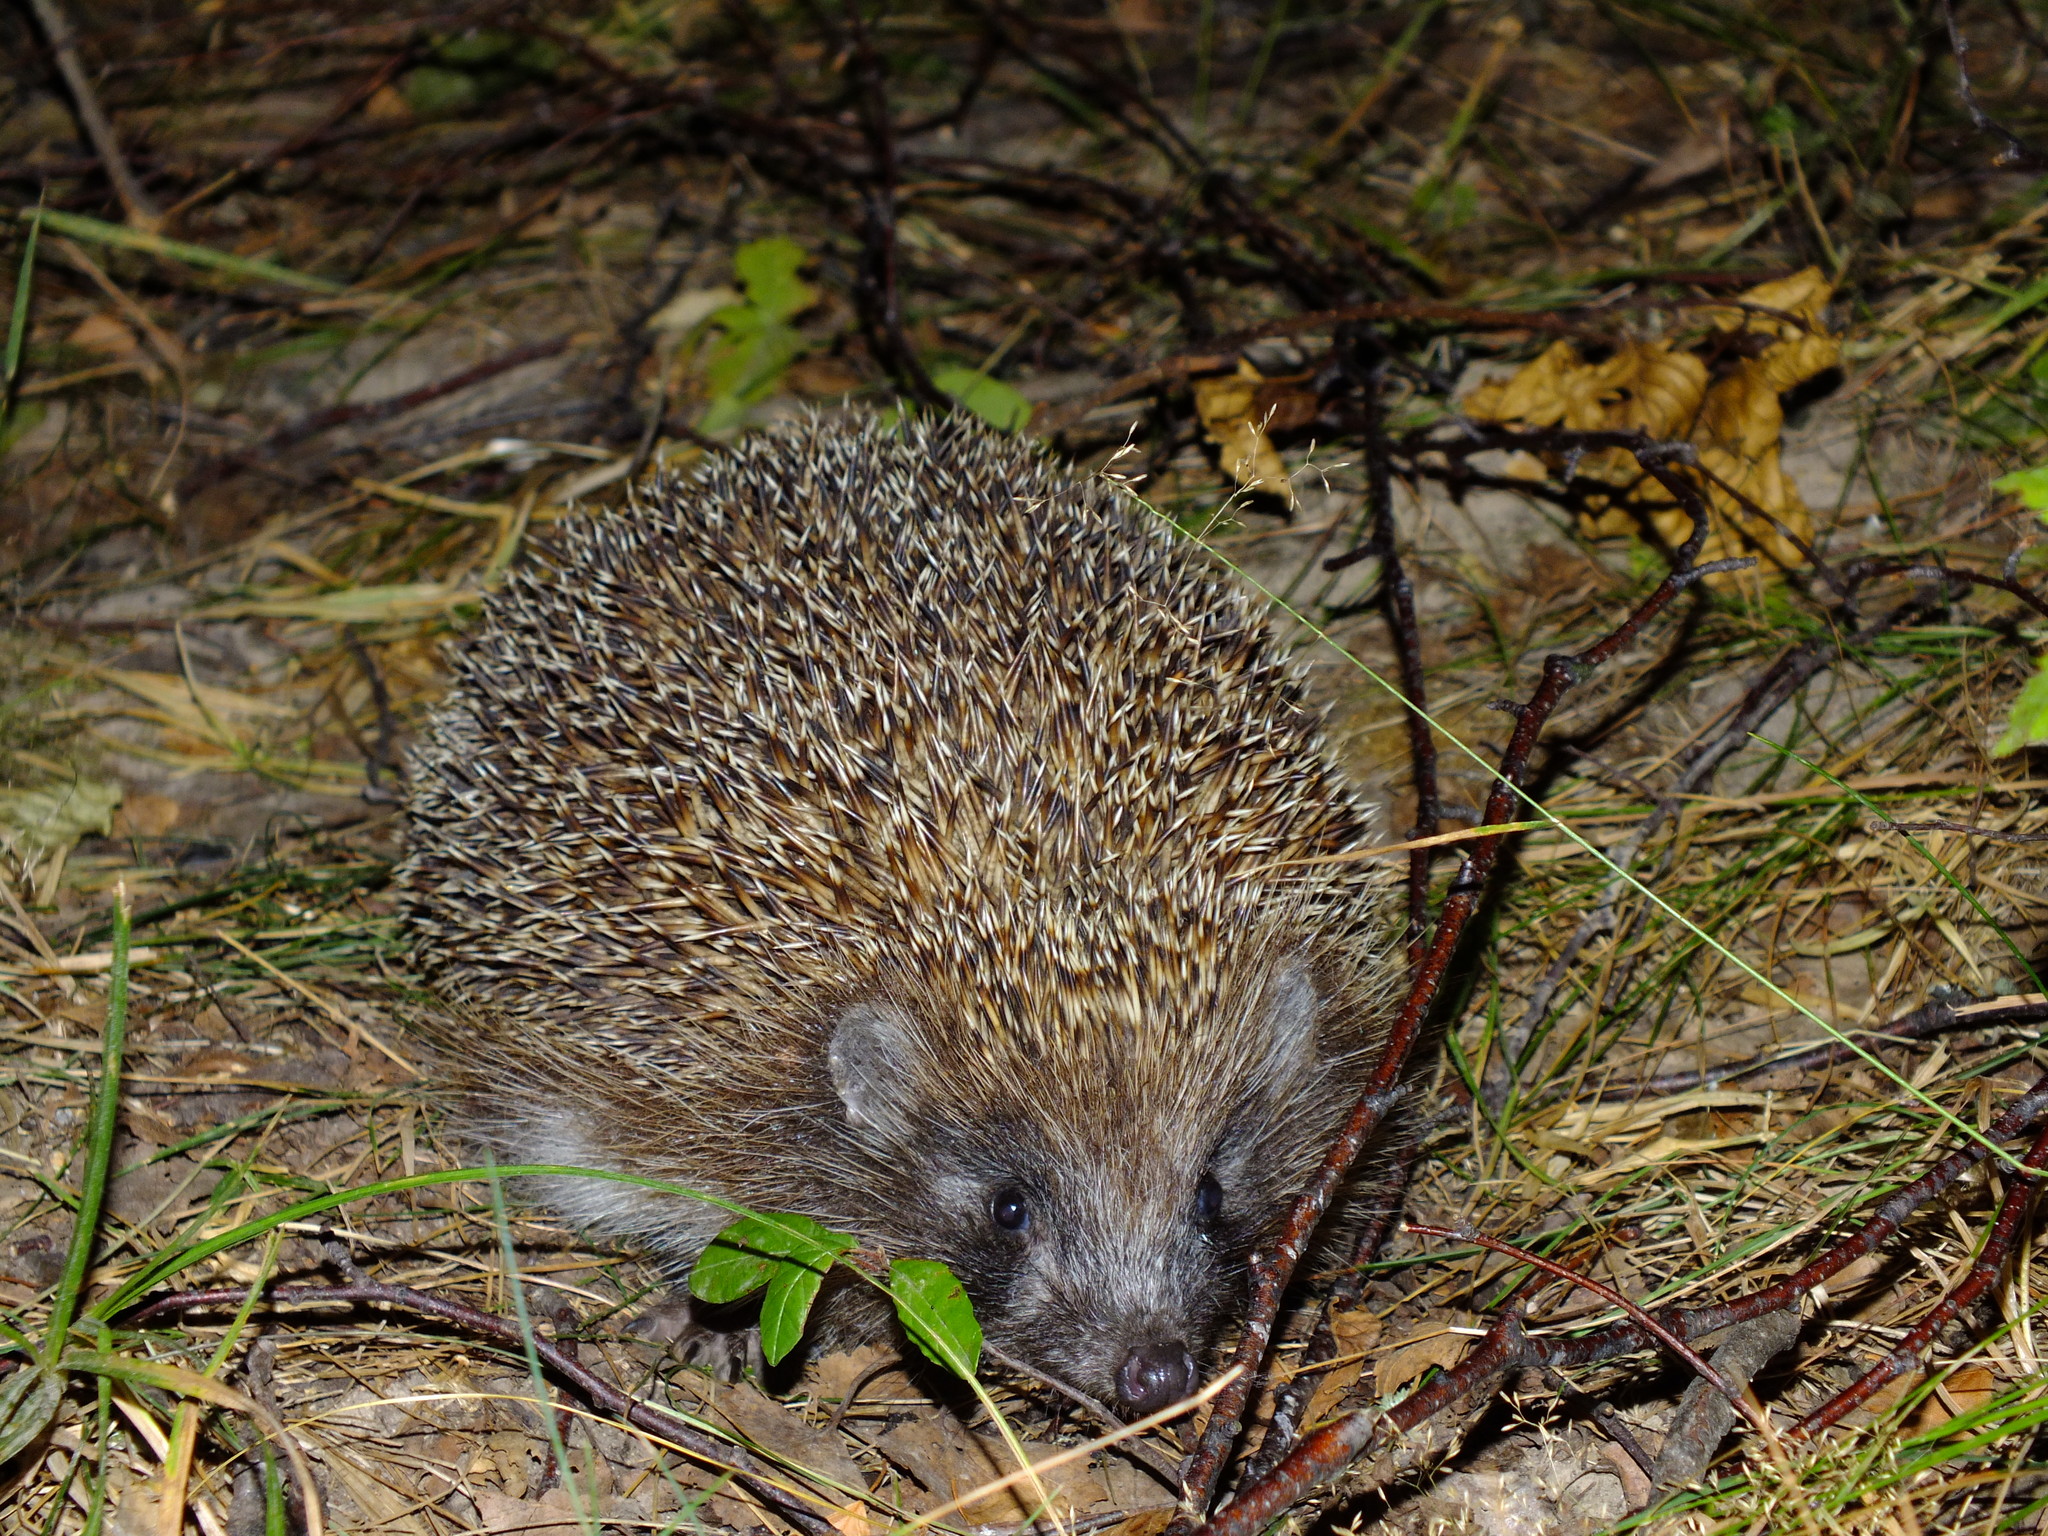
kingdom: Animalia
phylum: Chordata
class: Mammalia
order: Erinaceomorpha
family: Erinaceidae
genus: Erinaceus
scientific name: Erinaceus roumanicus
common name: Northern white-breasted hedgehog
